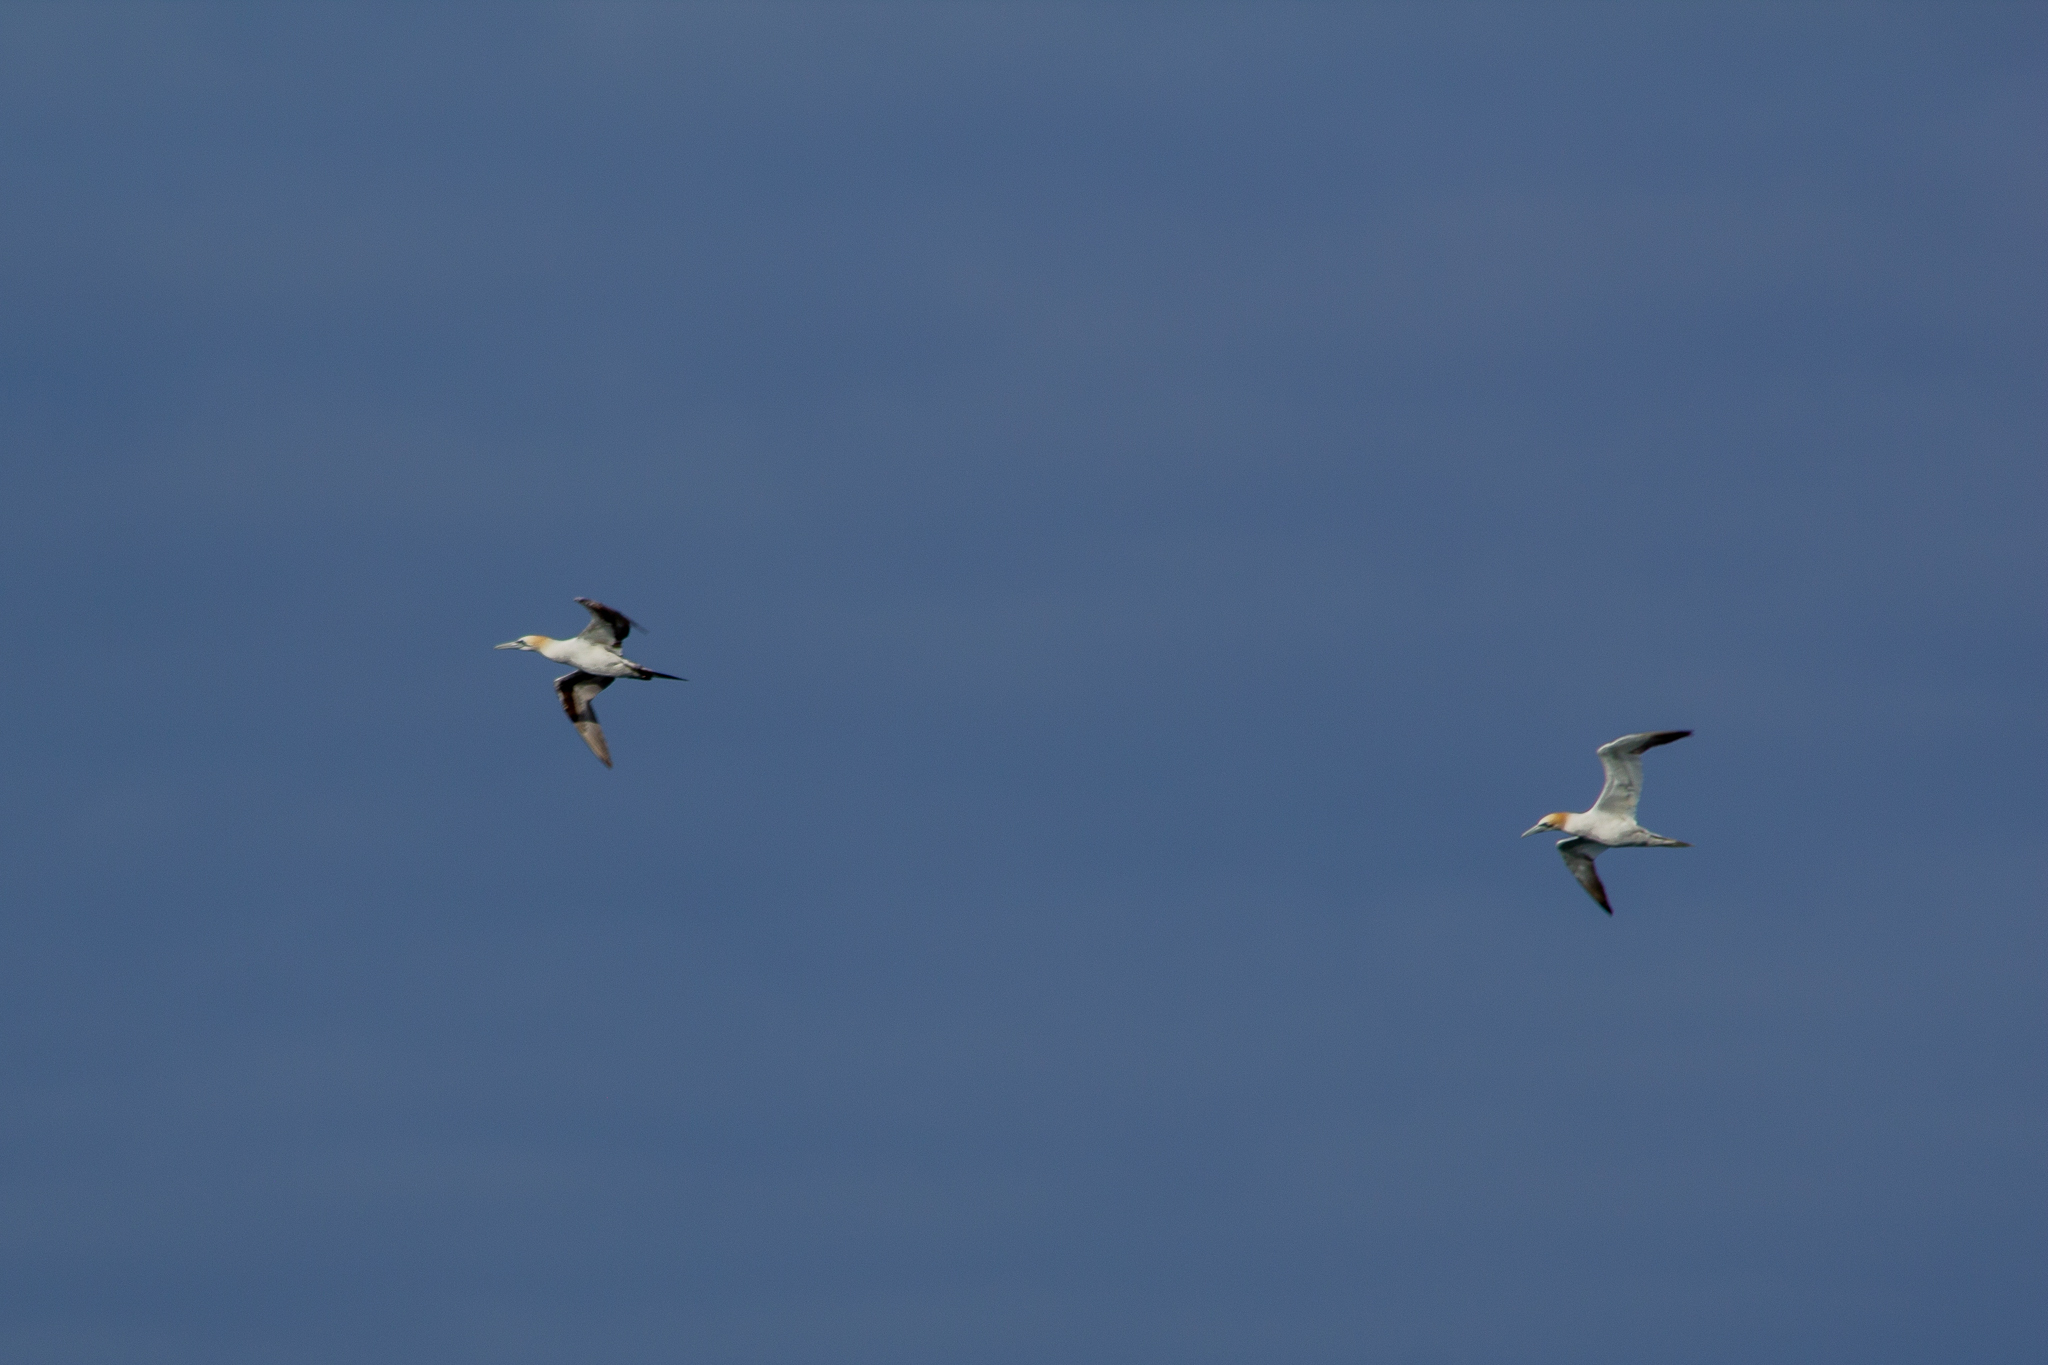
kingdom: Animalia
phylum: Chordata
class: Aves
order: Suliformes
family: Sulidae
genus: Morus
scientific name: Morus bassanus
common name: Northern gannet
